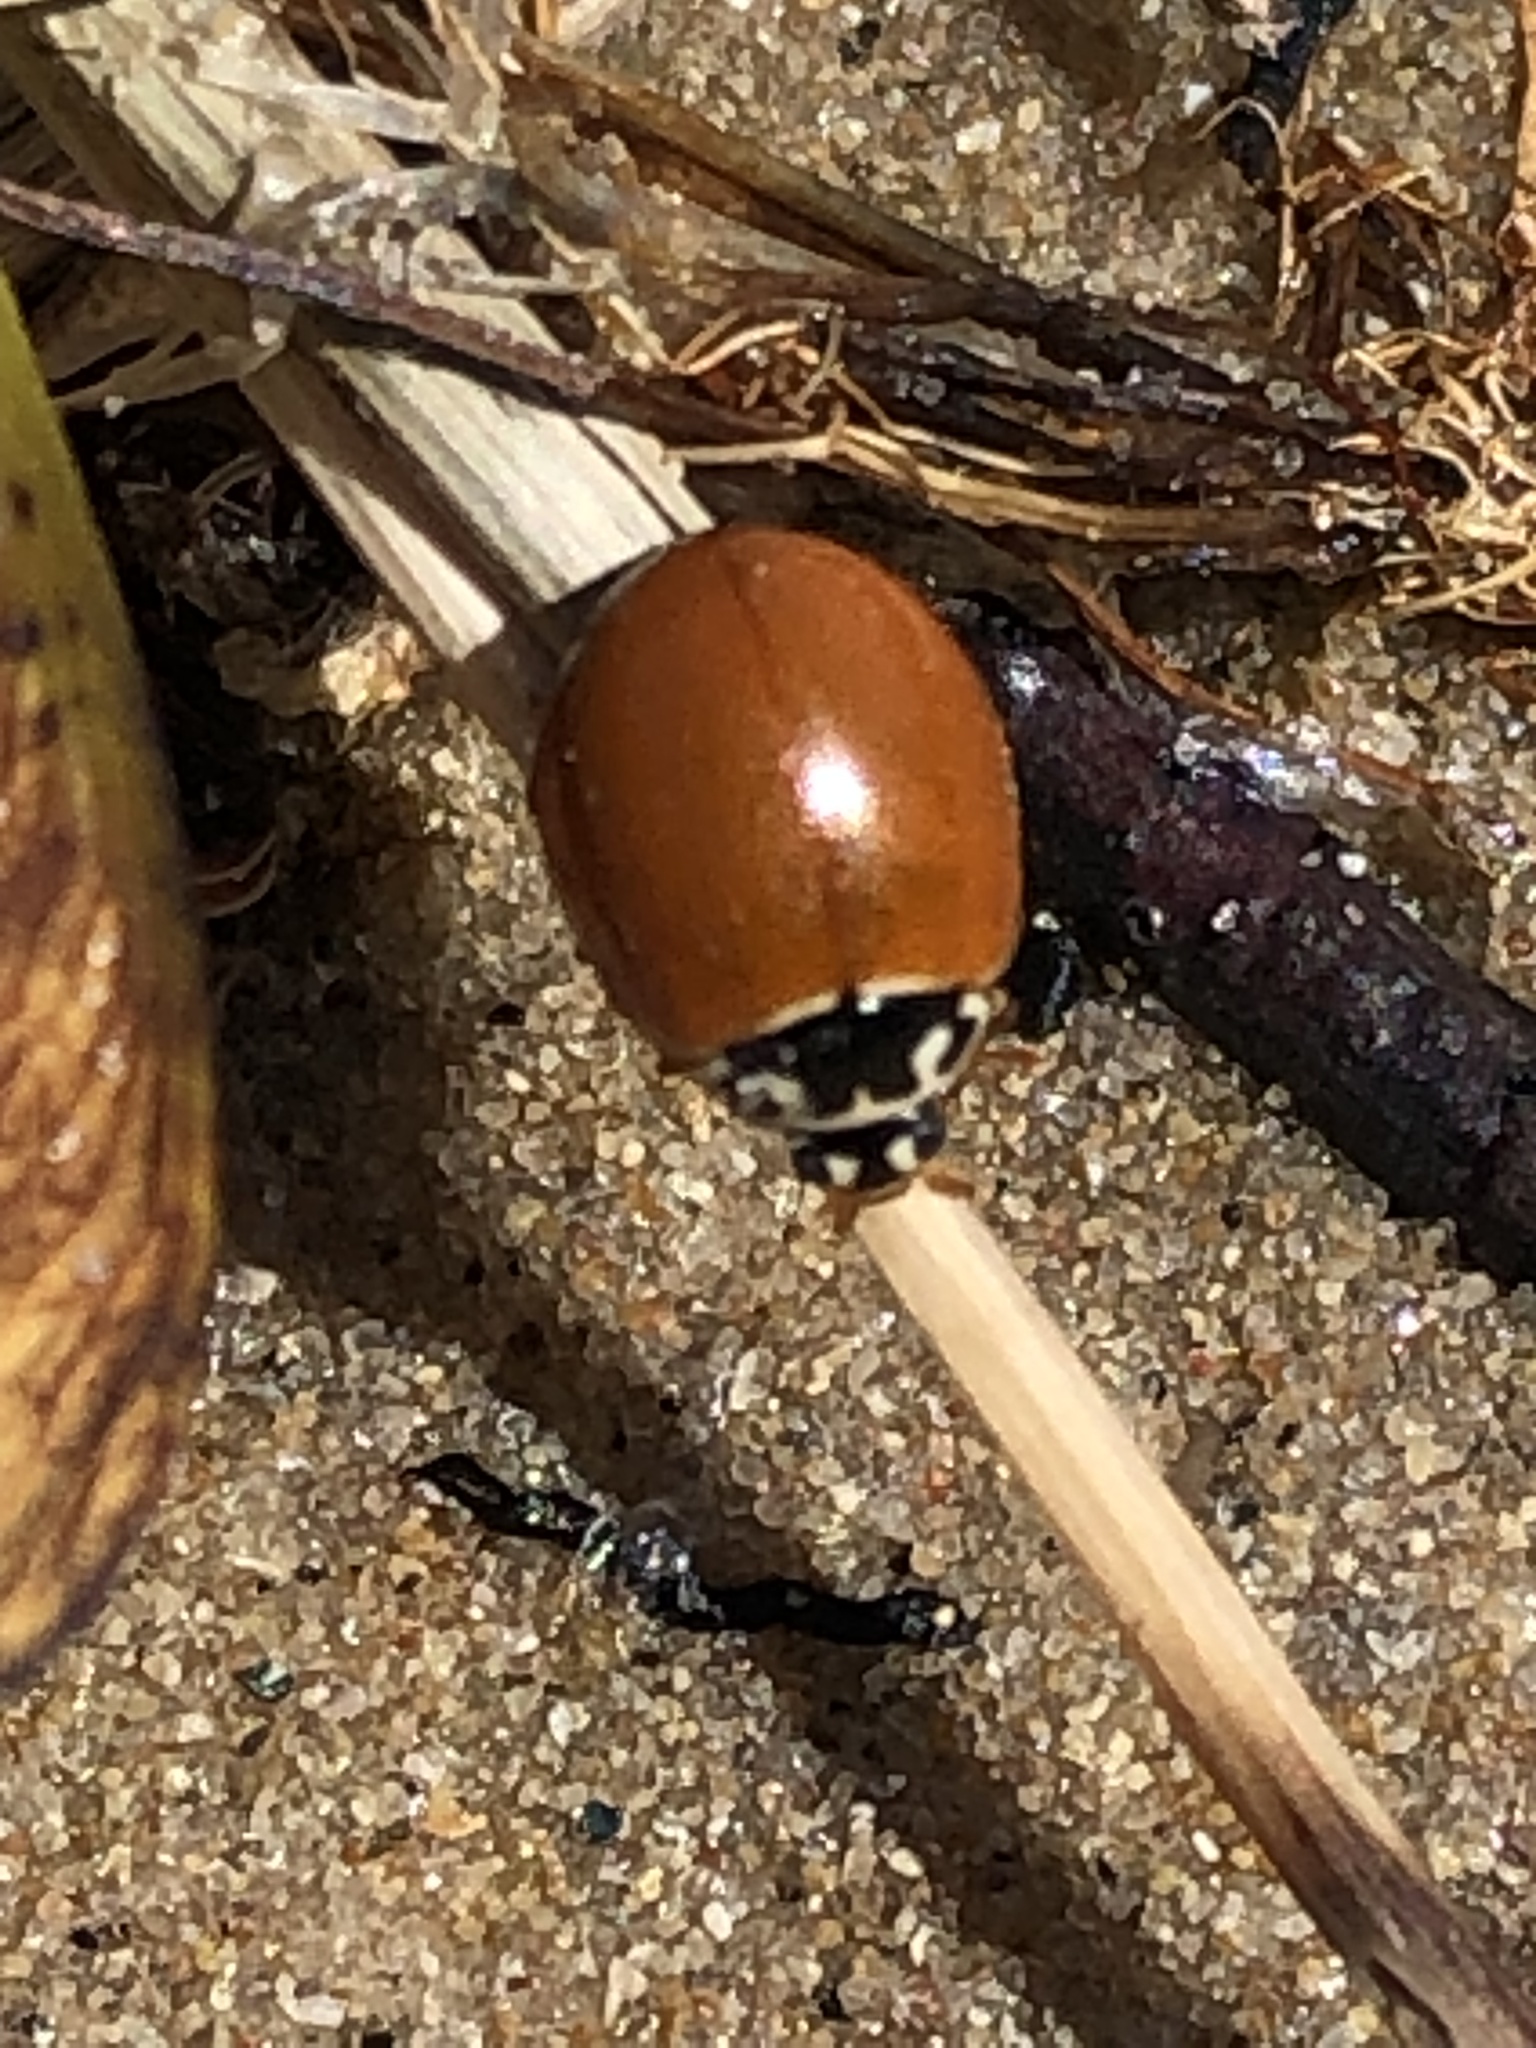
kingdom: Animalia
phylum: Arthropoda
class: Insecta
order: Coleoptera
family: Coccinellidae
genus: Cycloneda
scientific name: Cycloneda munda
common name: Polished lady beetle
